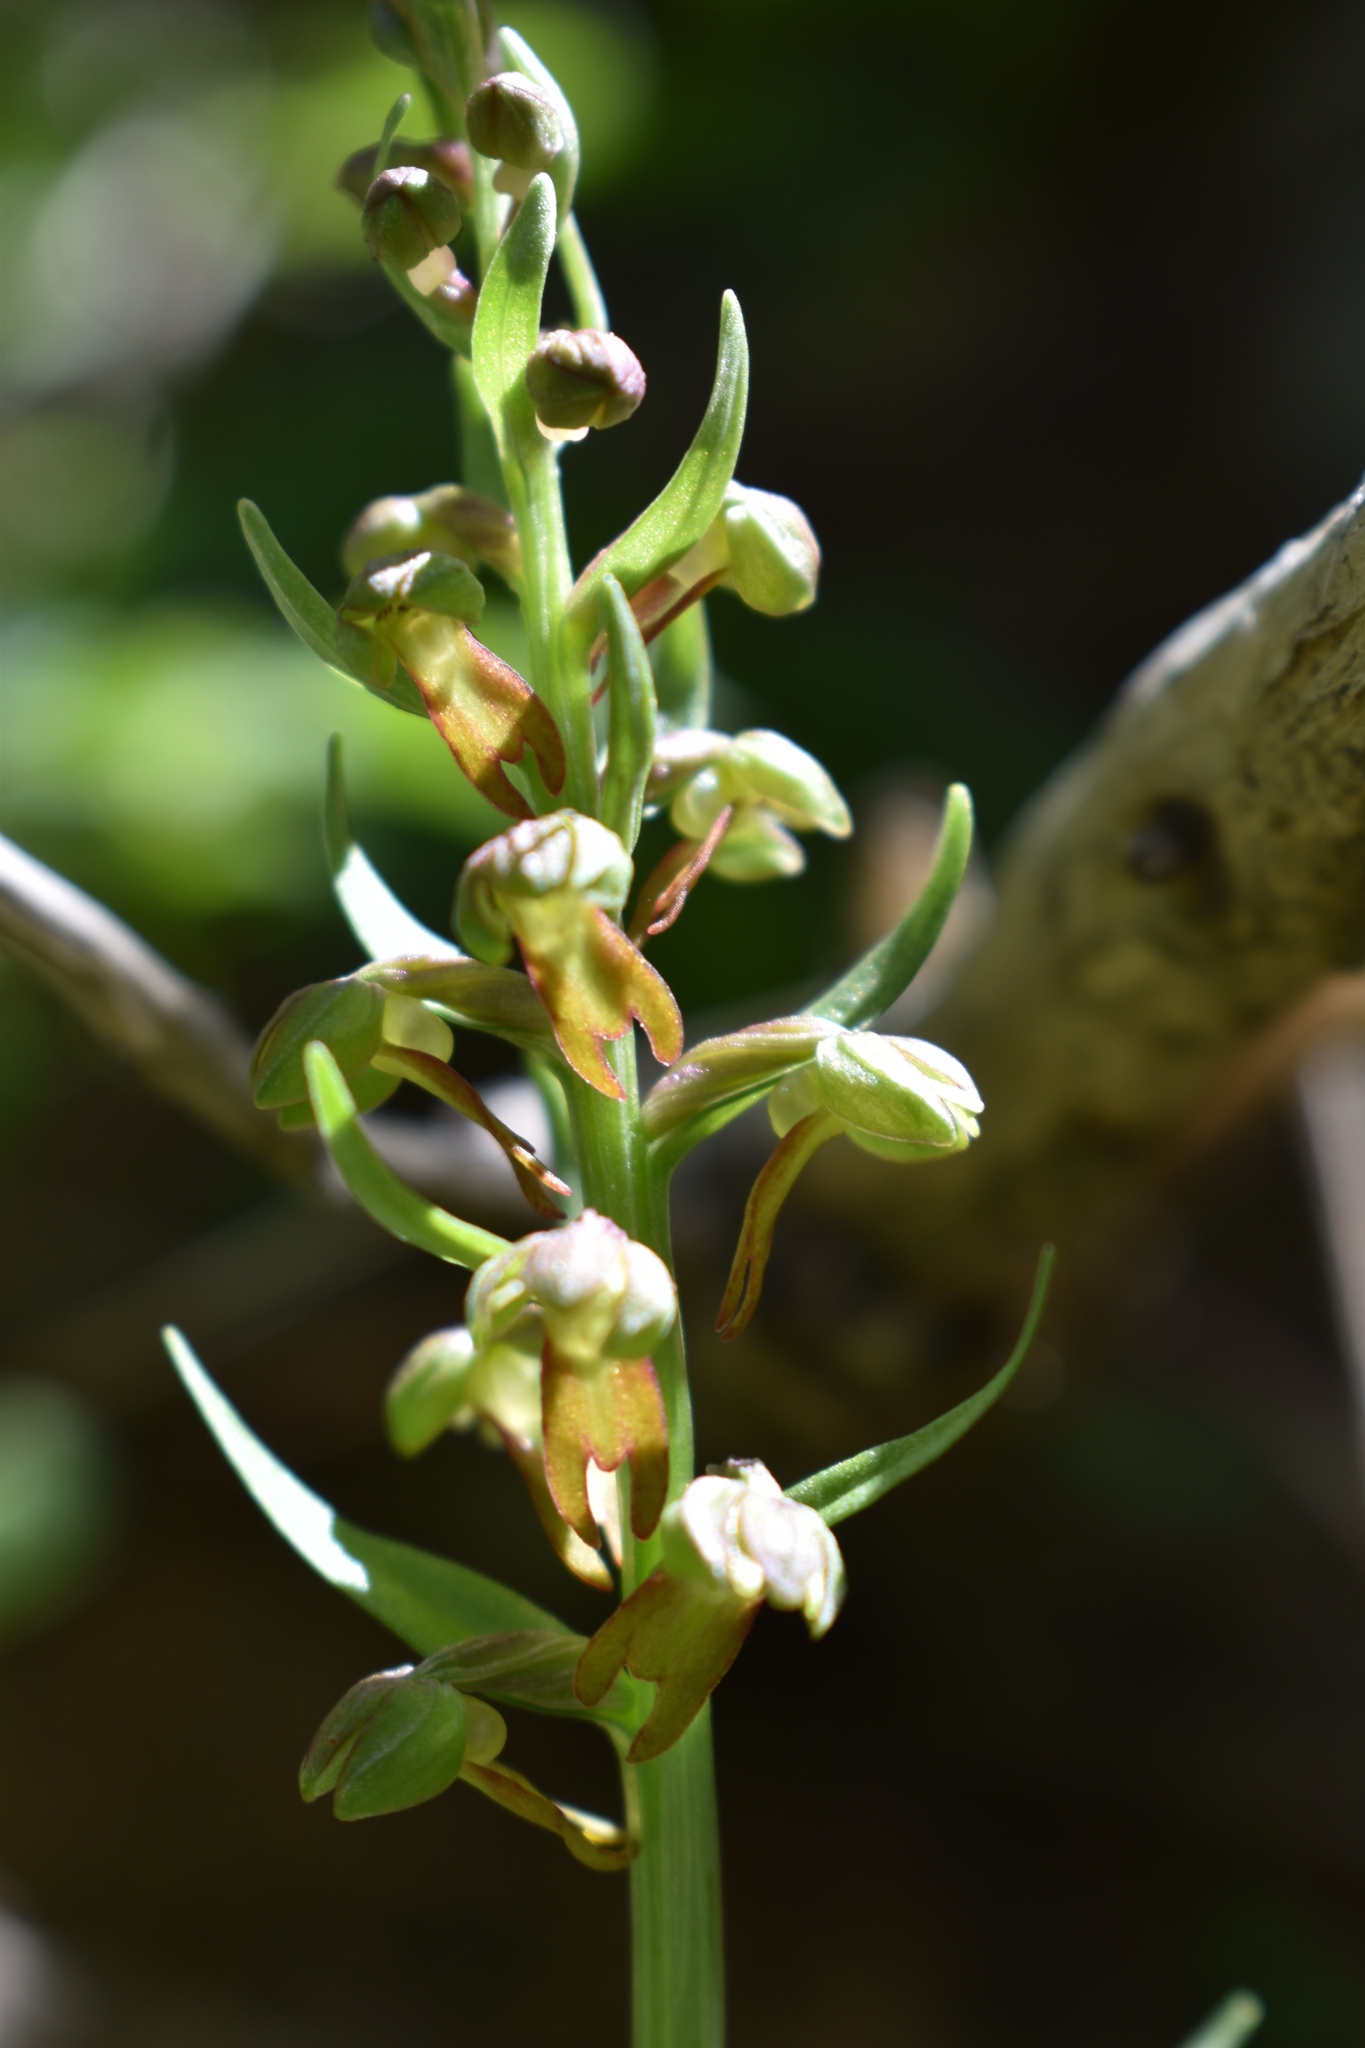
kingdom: Plantae
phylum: Tracheophyta
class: Liliopsida
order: Asparagales
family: Orchidaceae
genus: Dactylorhiza
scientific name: Dactylorhiza viridis
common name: Longbract frog orchid
